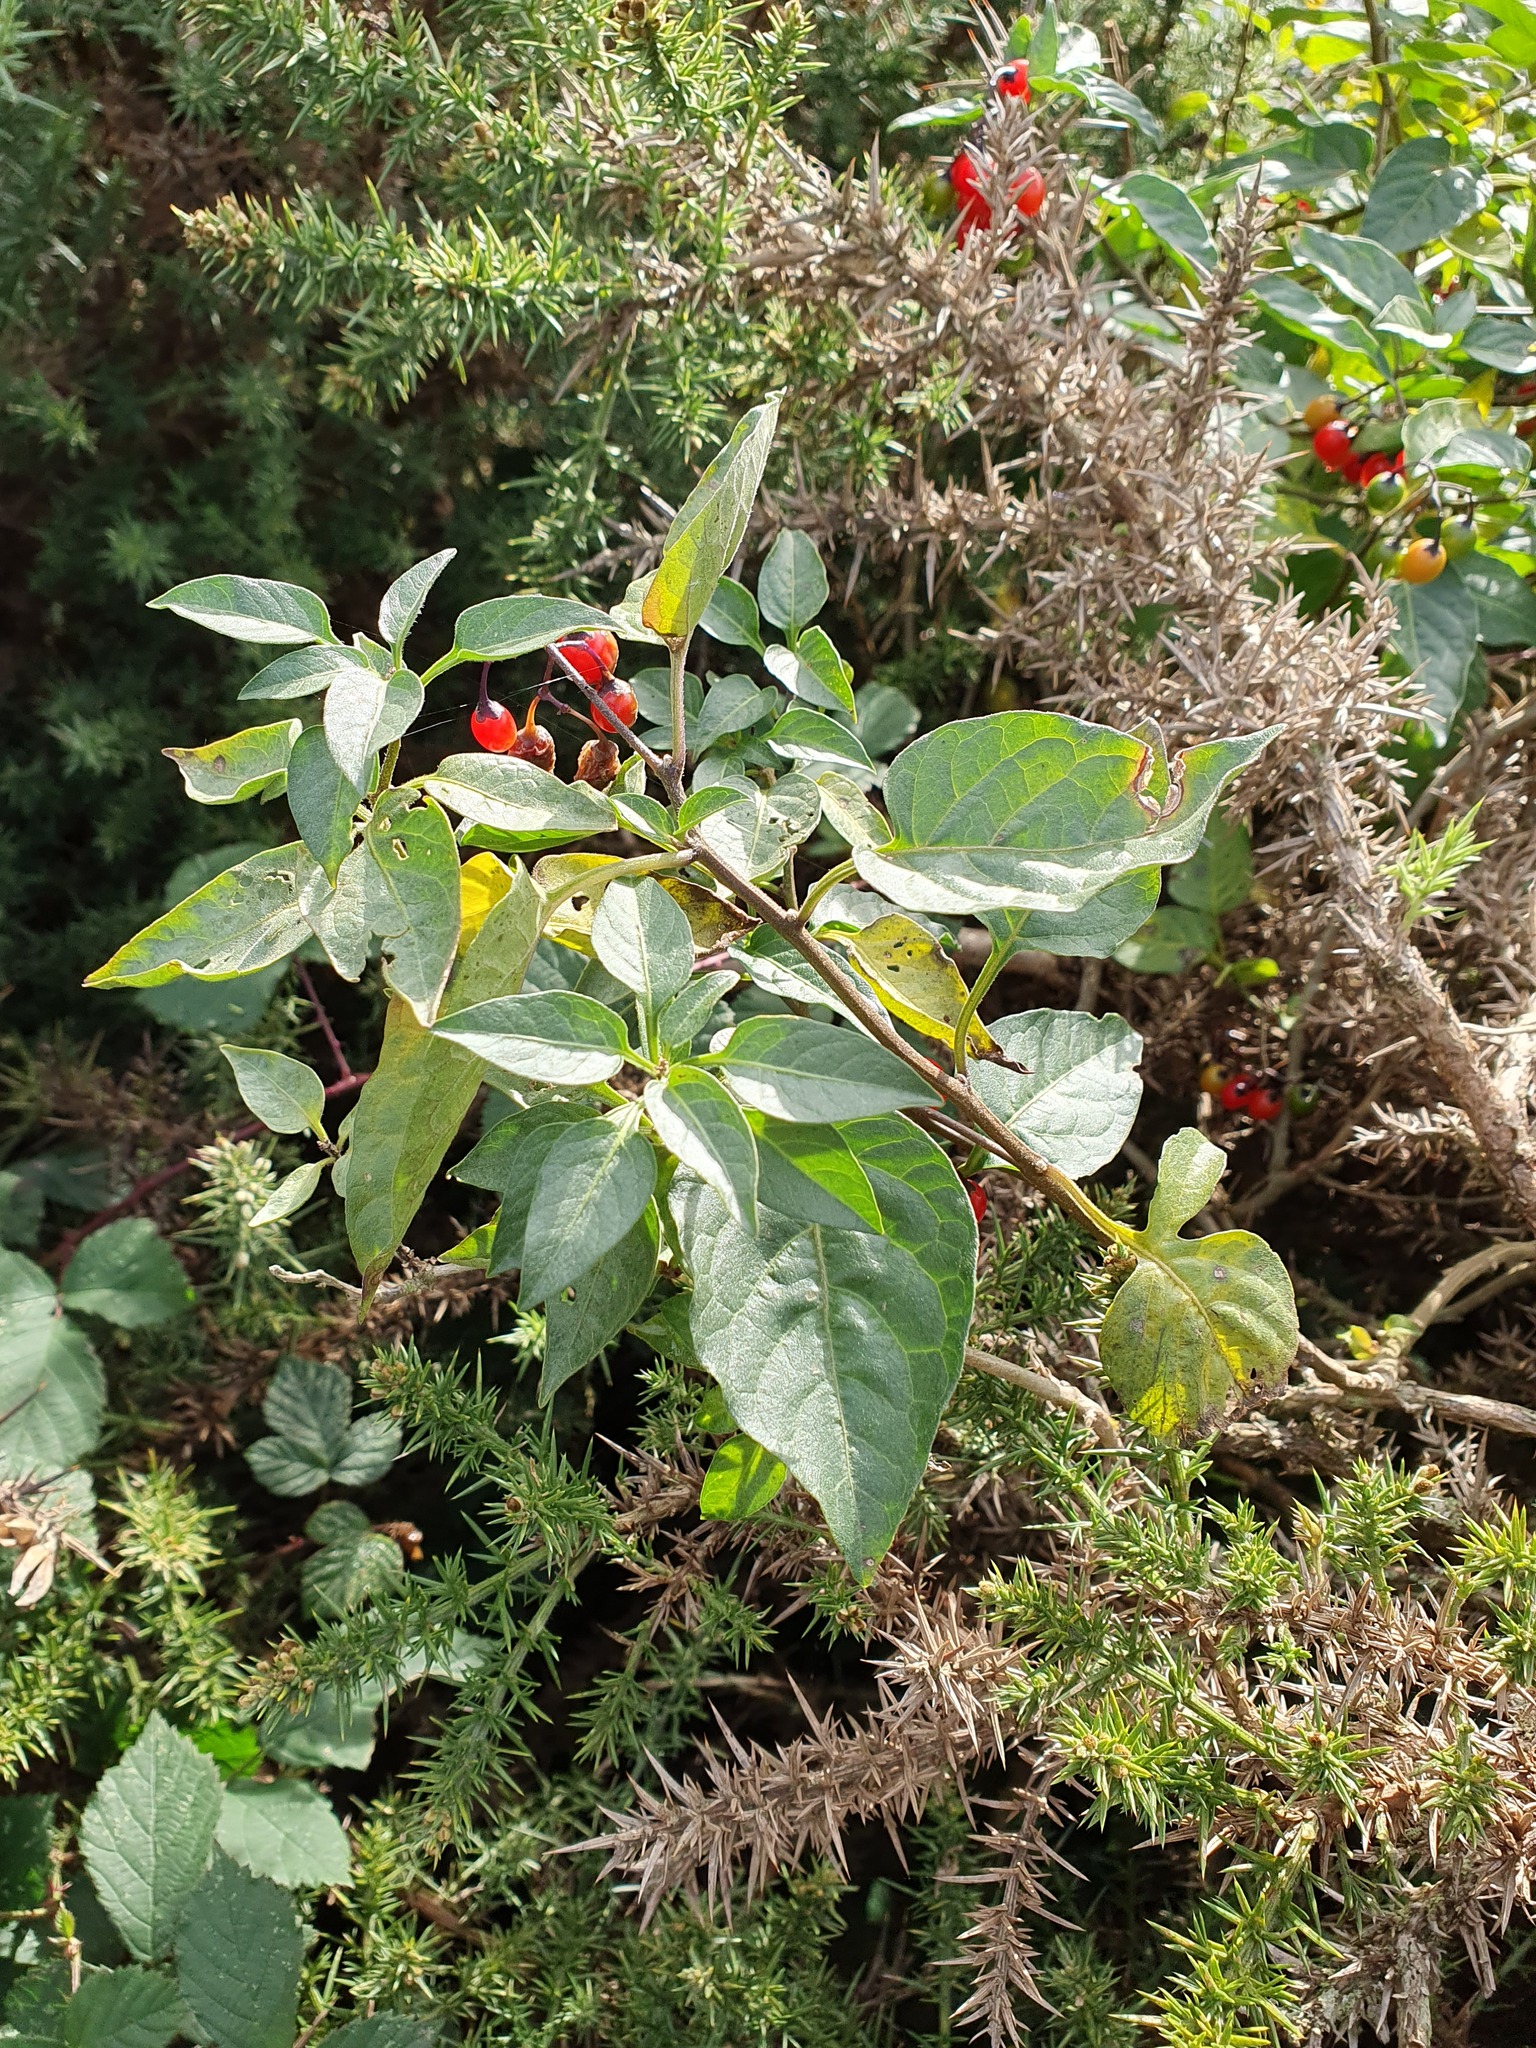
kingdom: Plantae
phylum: Tracheophyta
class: Magnoliopsida
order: Solanales
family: Solanaceae
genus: Solanum
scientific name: Solanum dulcamara
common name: Climbing nightshade
